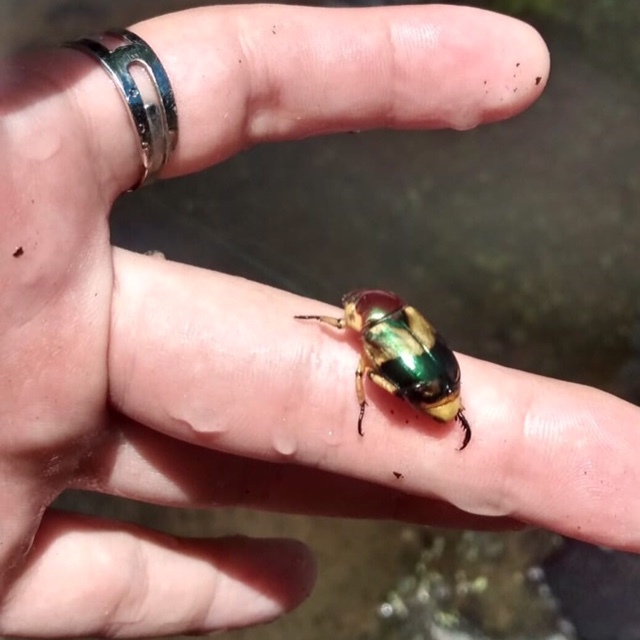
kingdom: Animalia
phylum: Arthropoda
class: Insecta
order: Coleoptera
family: Scarabaeidae
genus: Pelidnota
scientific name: Pelidnota pulchella
